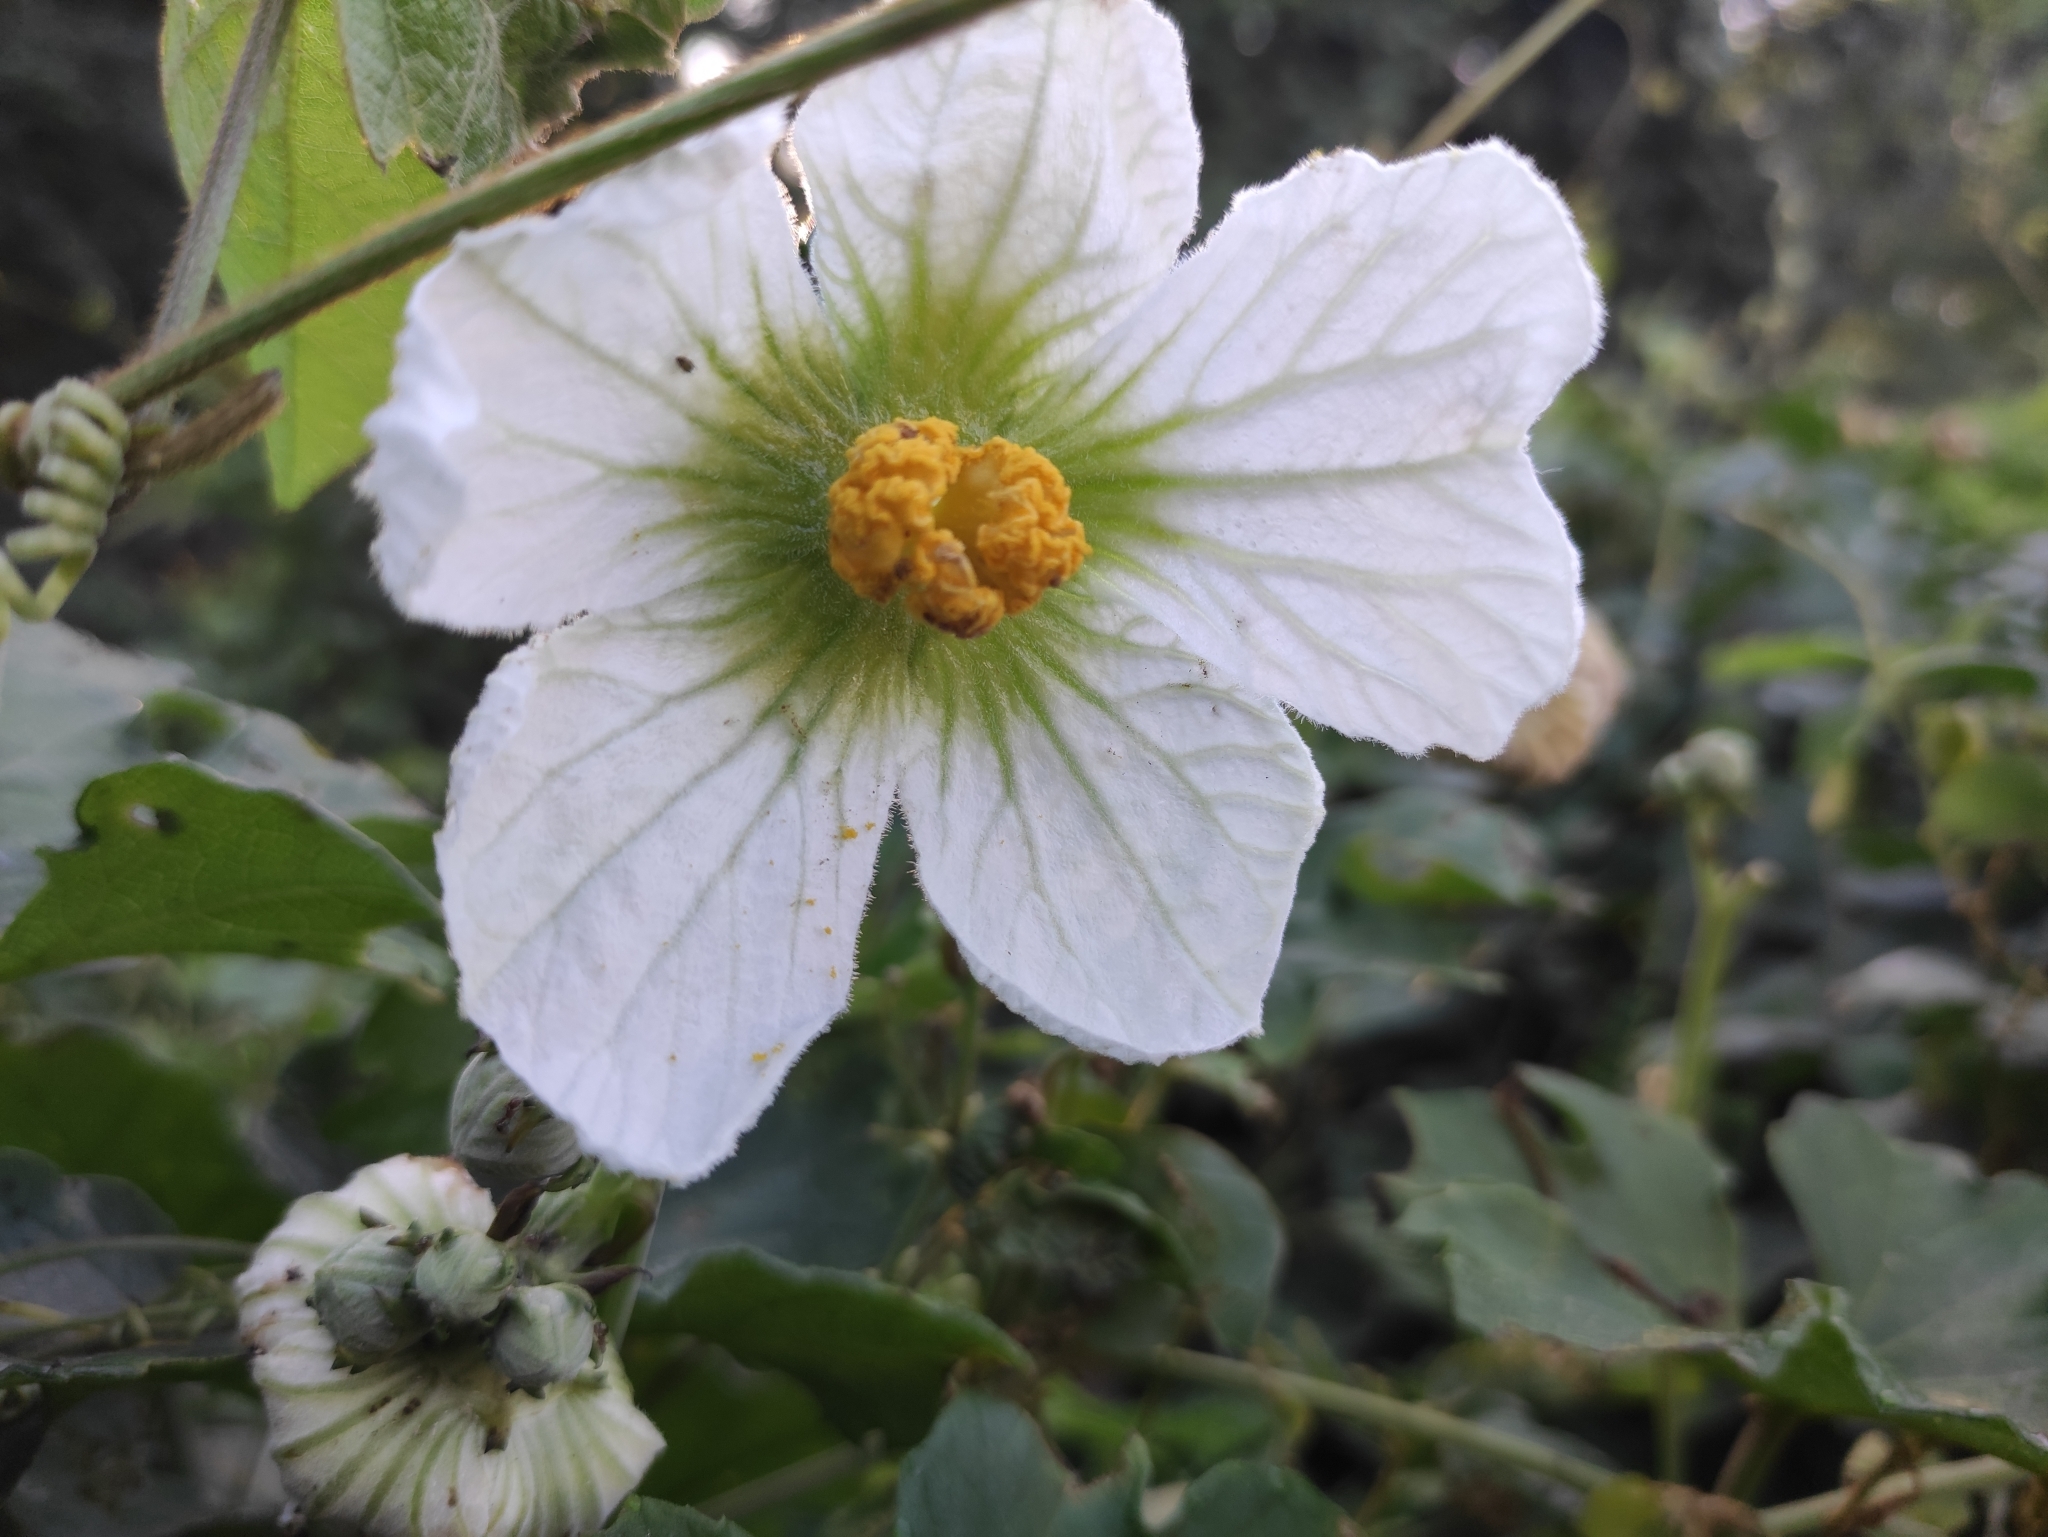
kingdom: Plantae
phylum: Tracheophyta
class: Magnoliopsida
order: Cucurbitales
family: Cucurbitaceae
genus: Lagenaria
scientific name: Lagenaria sphaerica
